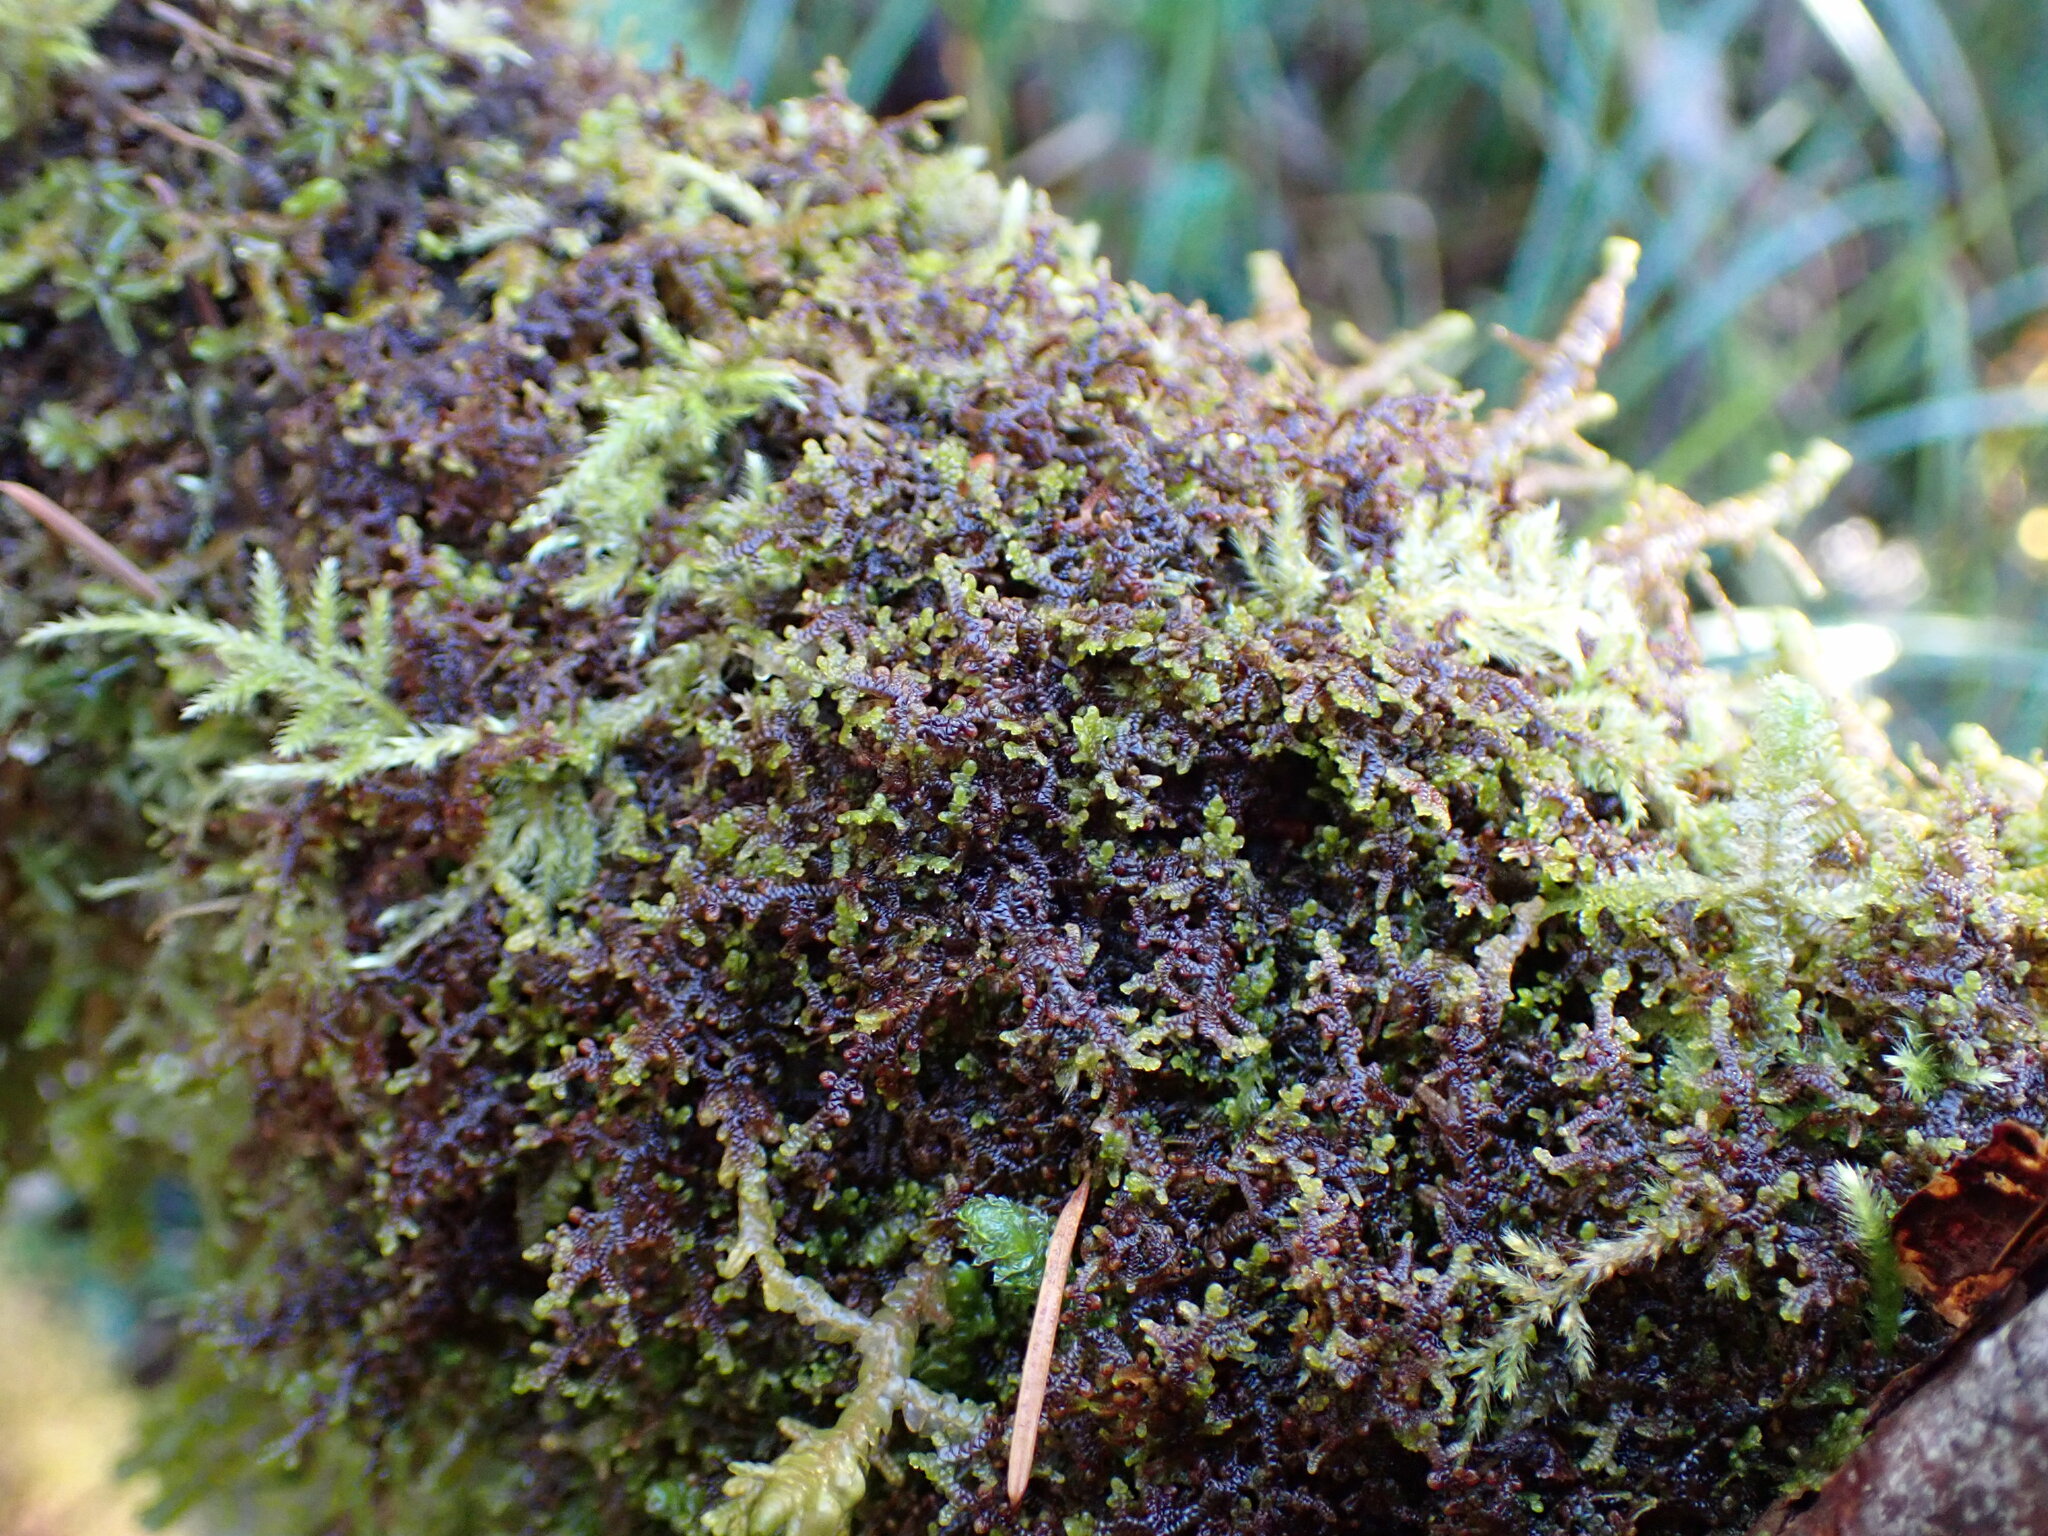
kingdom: Plantae
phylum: Marchantiophyta
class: Jungermanniopsida
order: Porellales
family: Frullaniaceae
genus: Frullania
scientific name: Frullania nisquallensis
